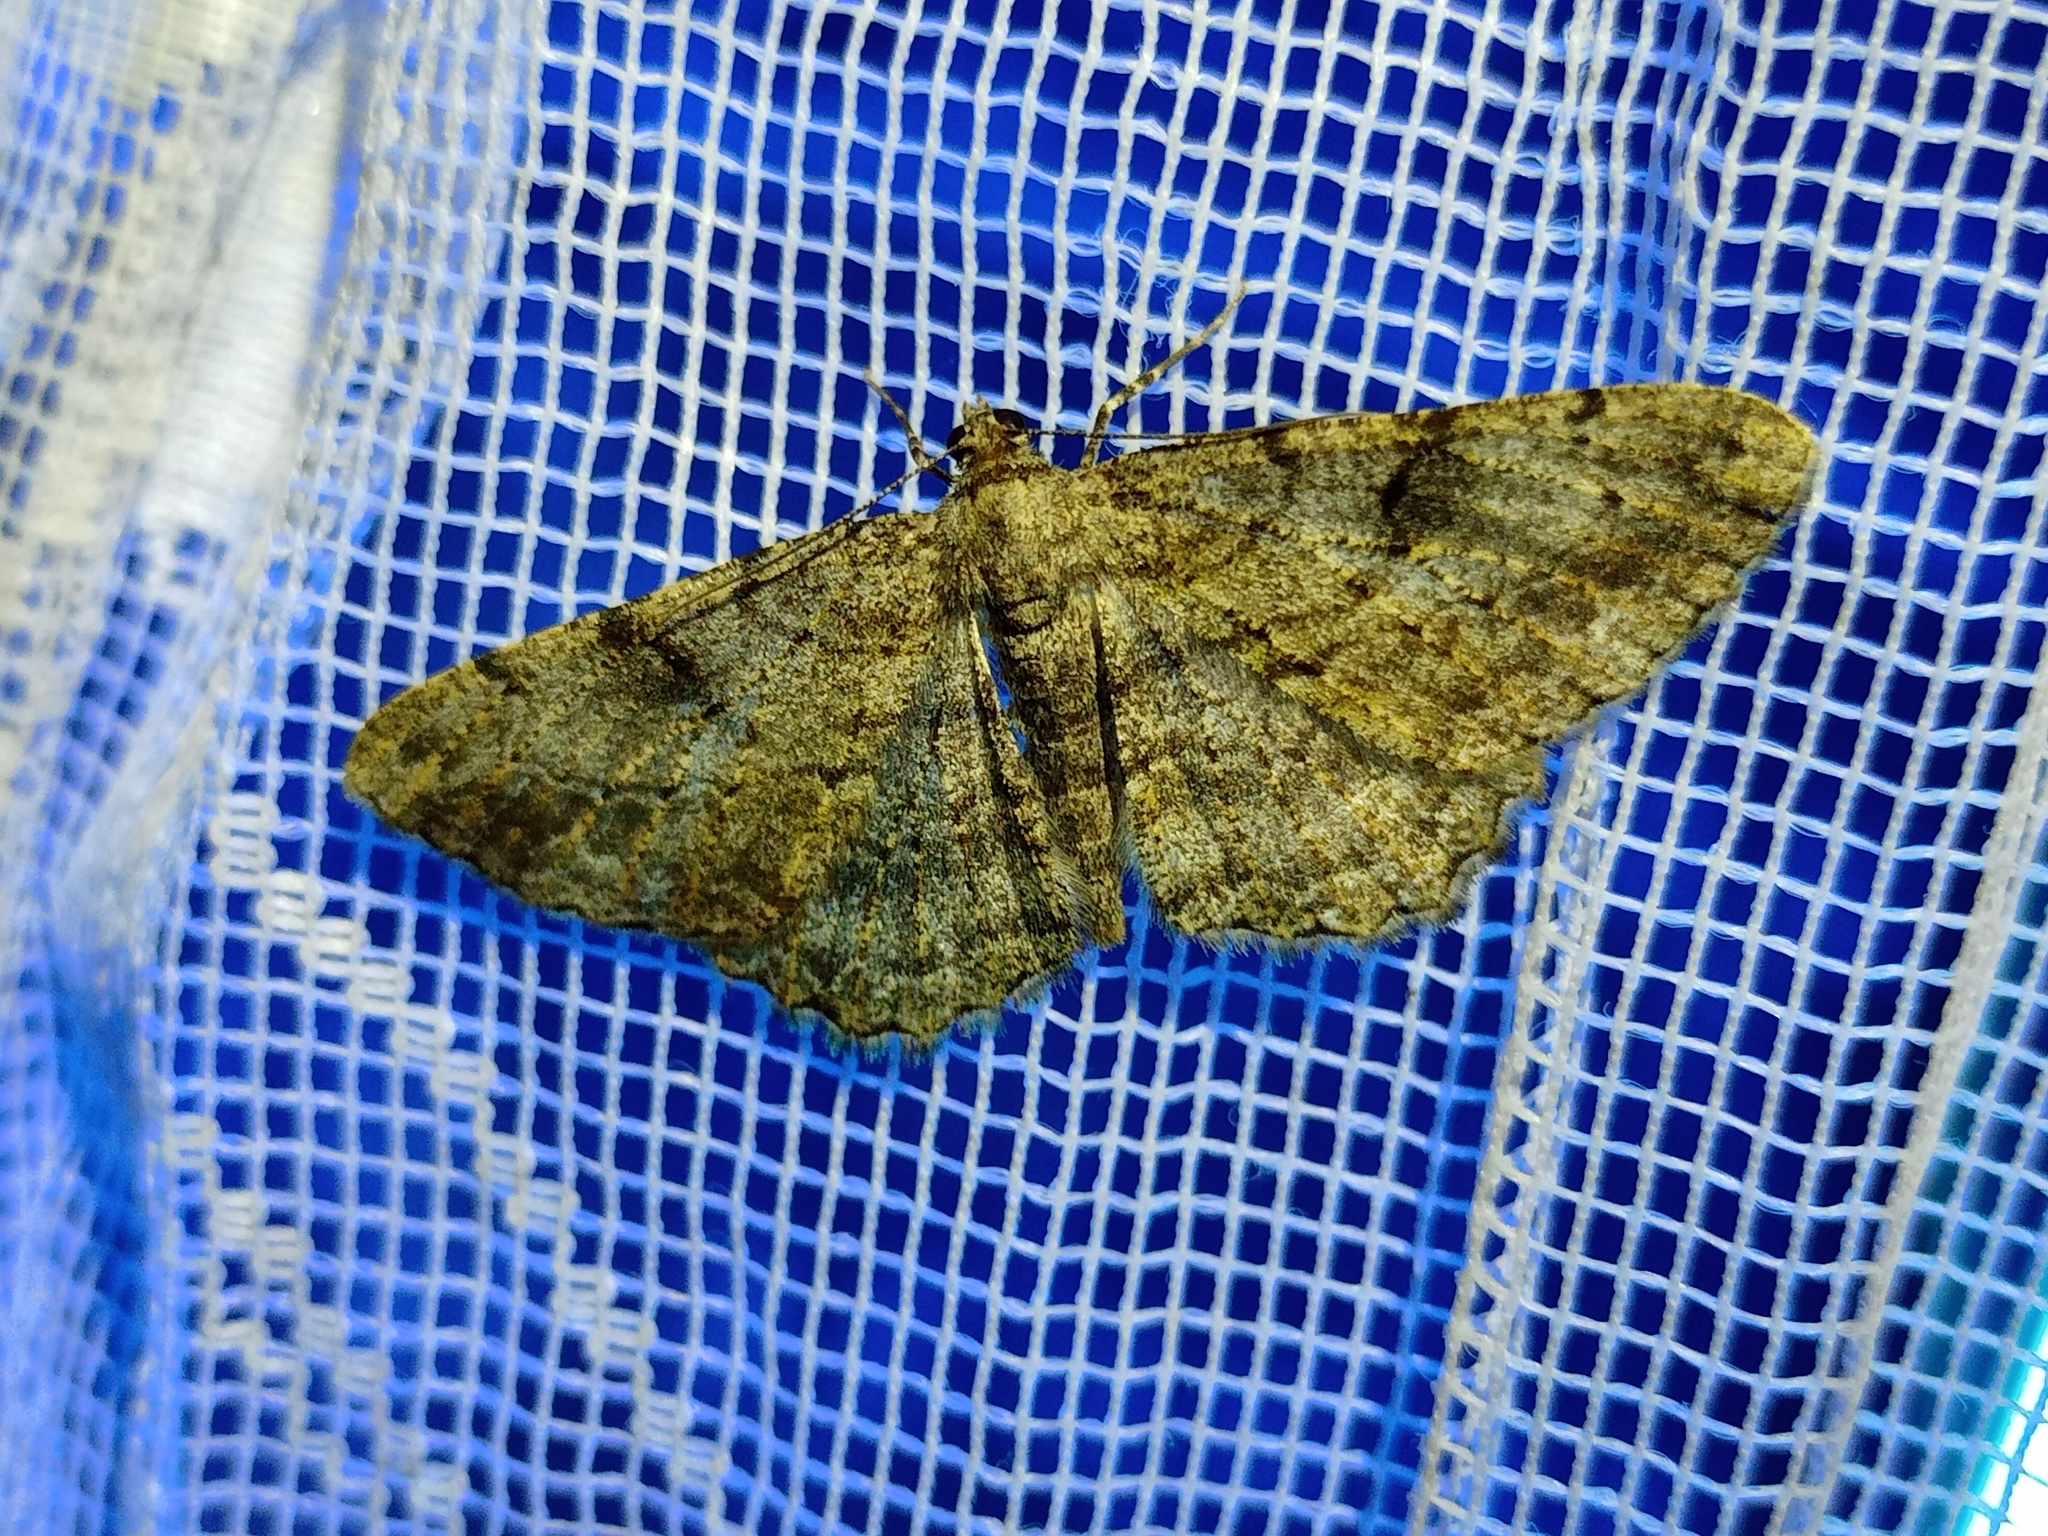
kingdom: Animalia
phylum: Arthropoda
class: Insecta
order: Lepidoptera
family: Geometridae
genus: Peribatodes
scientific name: Peribatodes rhomboidaria
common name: Willow beauty
